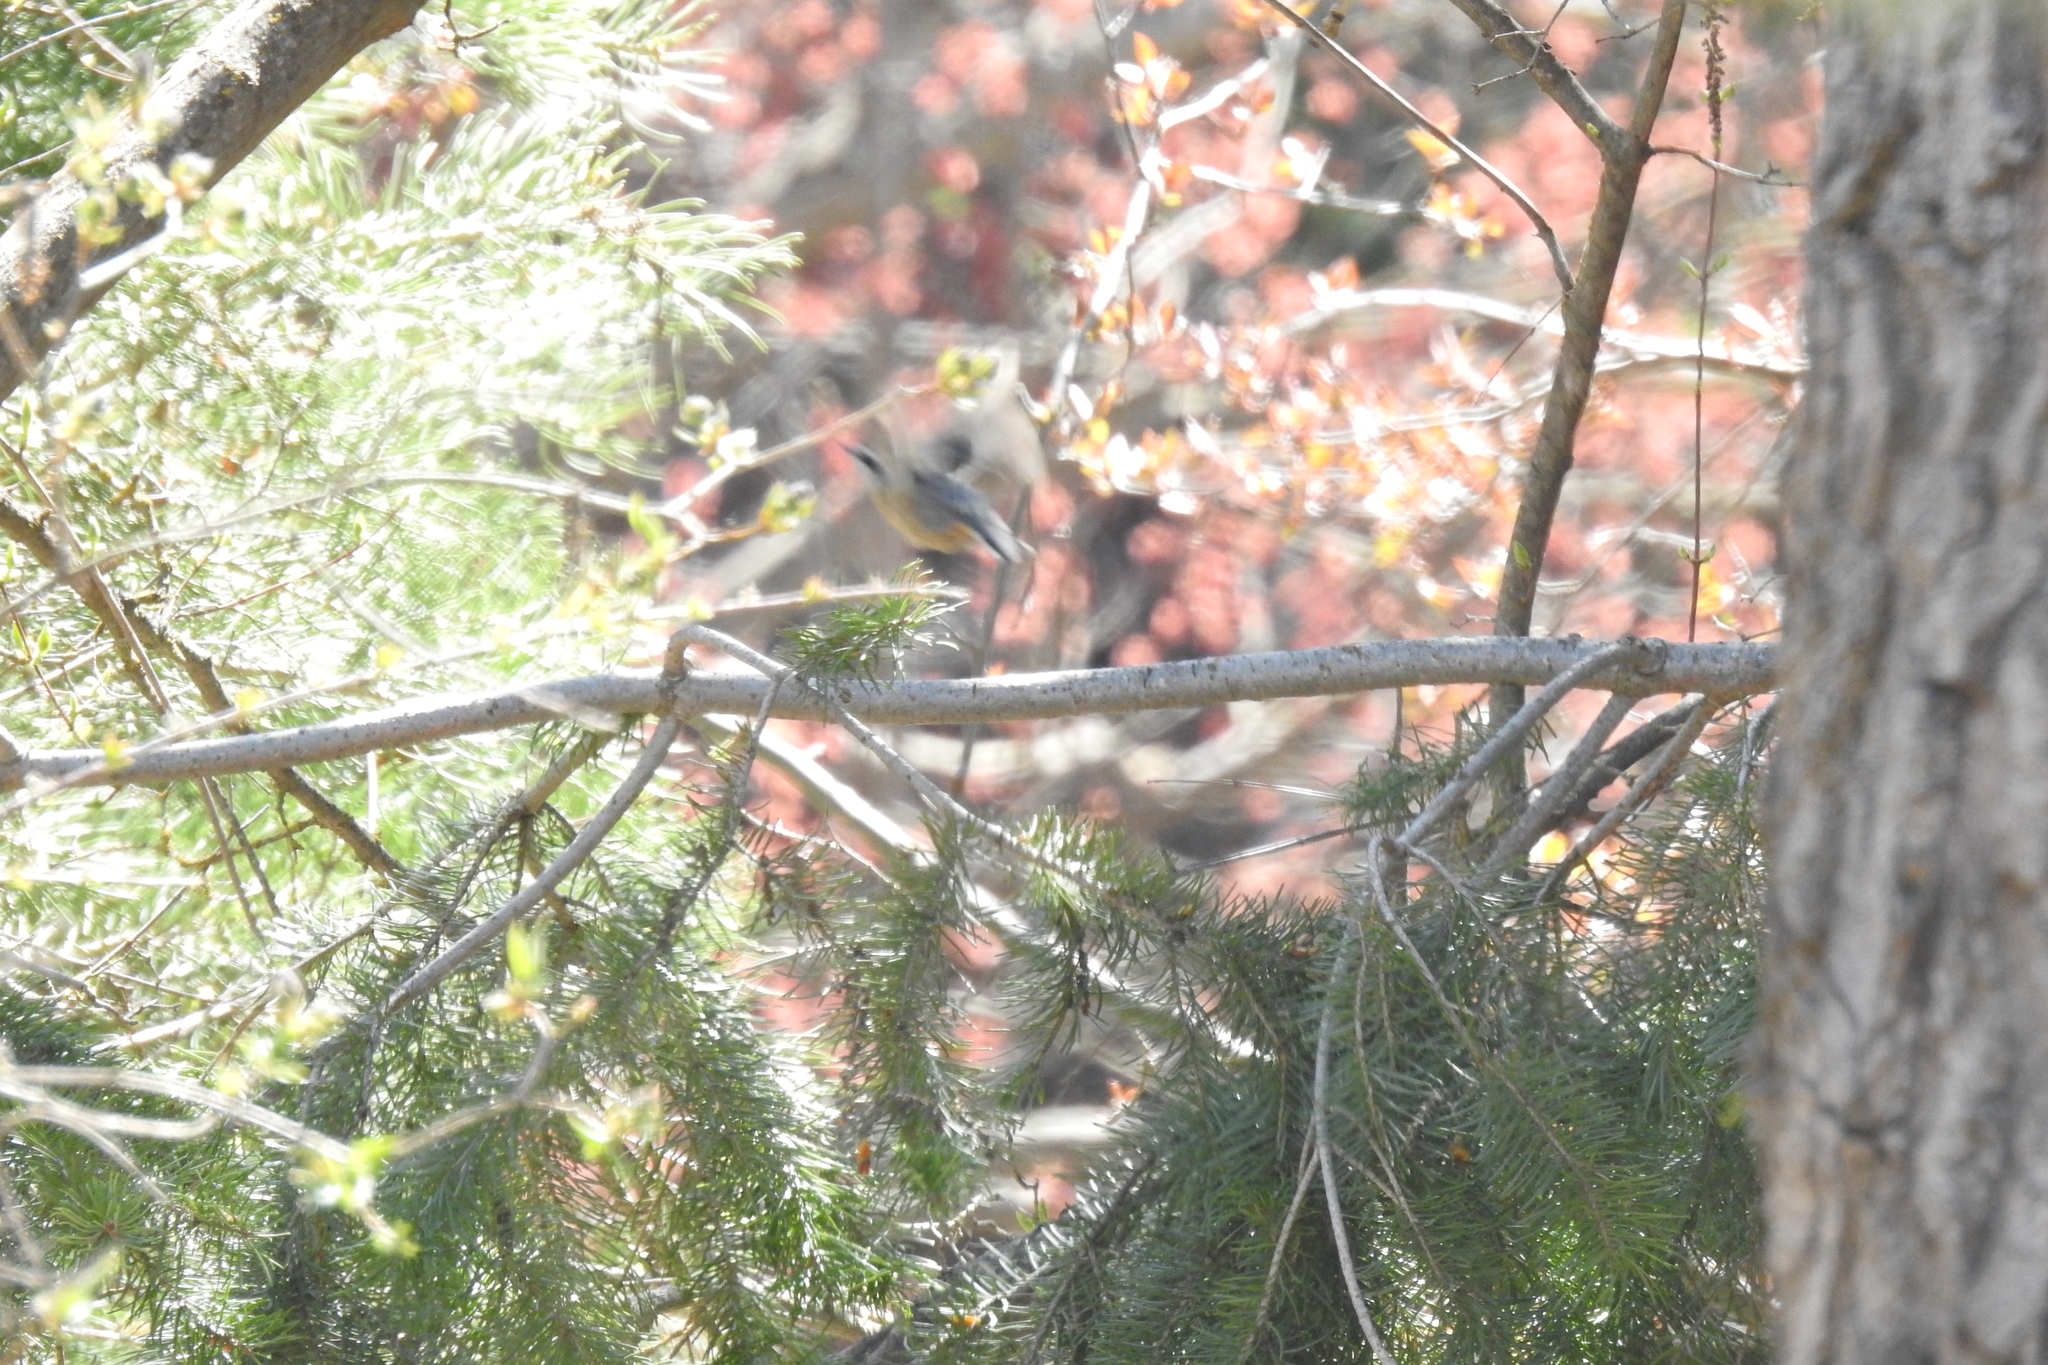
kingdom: Animalia
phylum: Chordata
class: Aves
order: Passeriformes
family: Sittidae
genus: Sitta
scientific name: Sitta canadensis
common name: Red-breasted nuthatch
